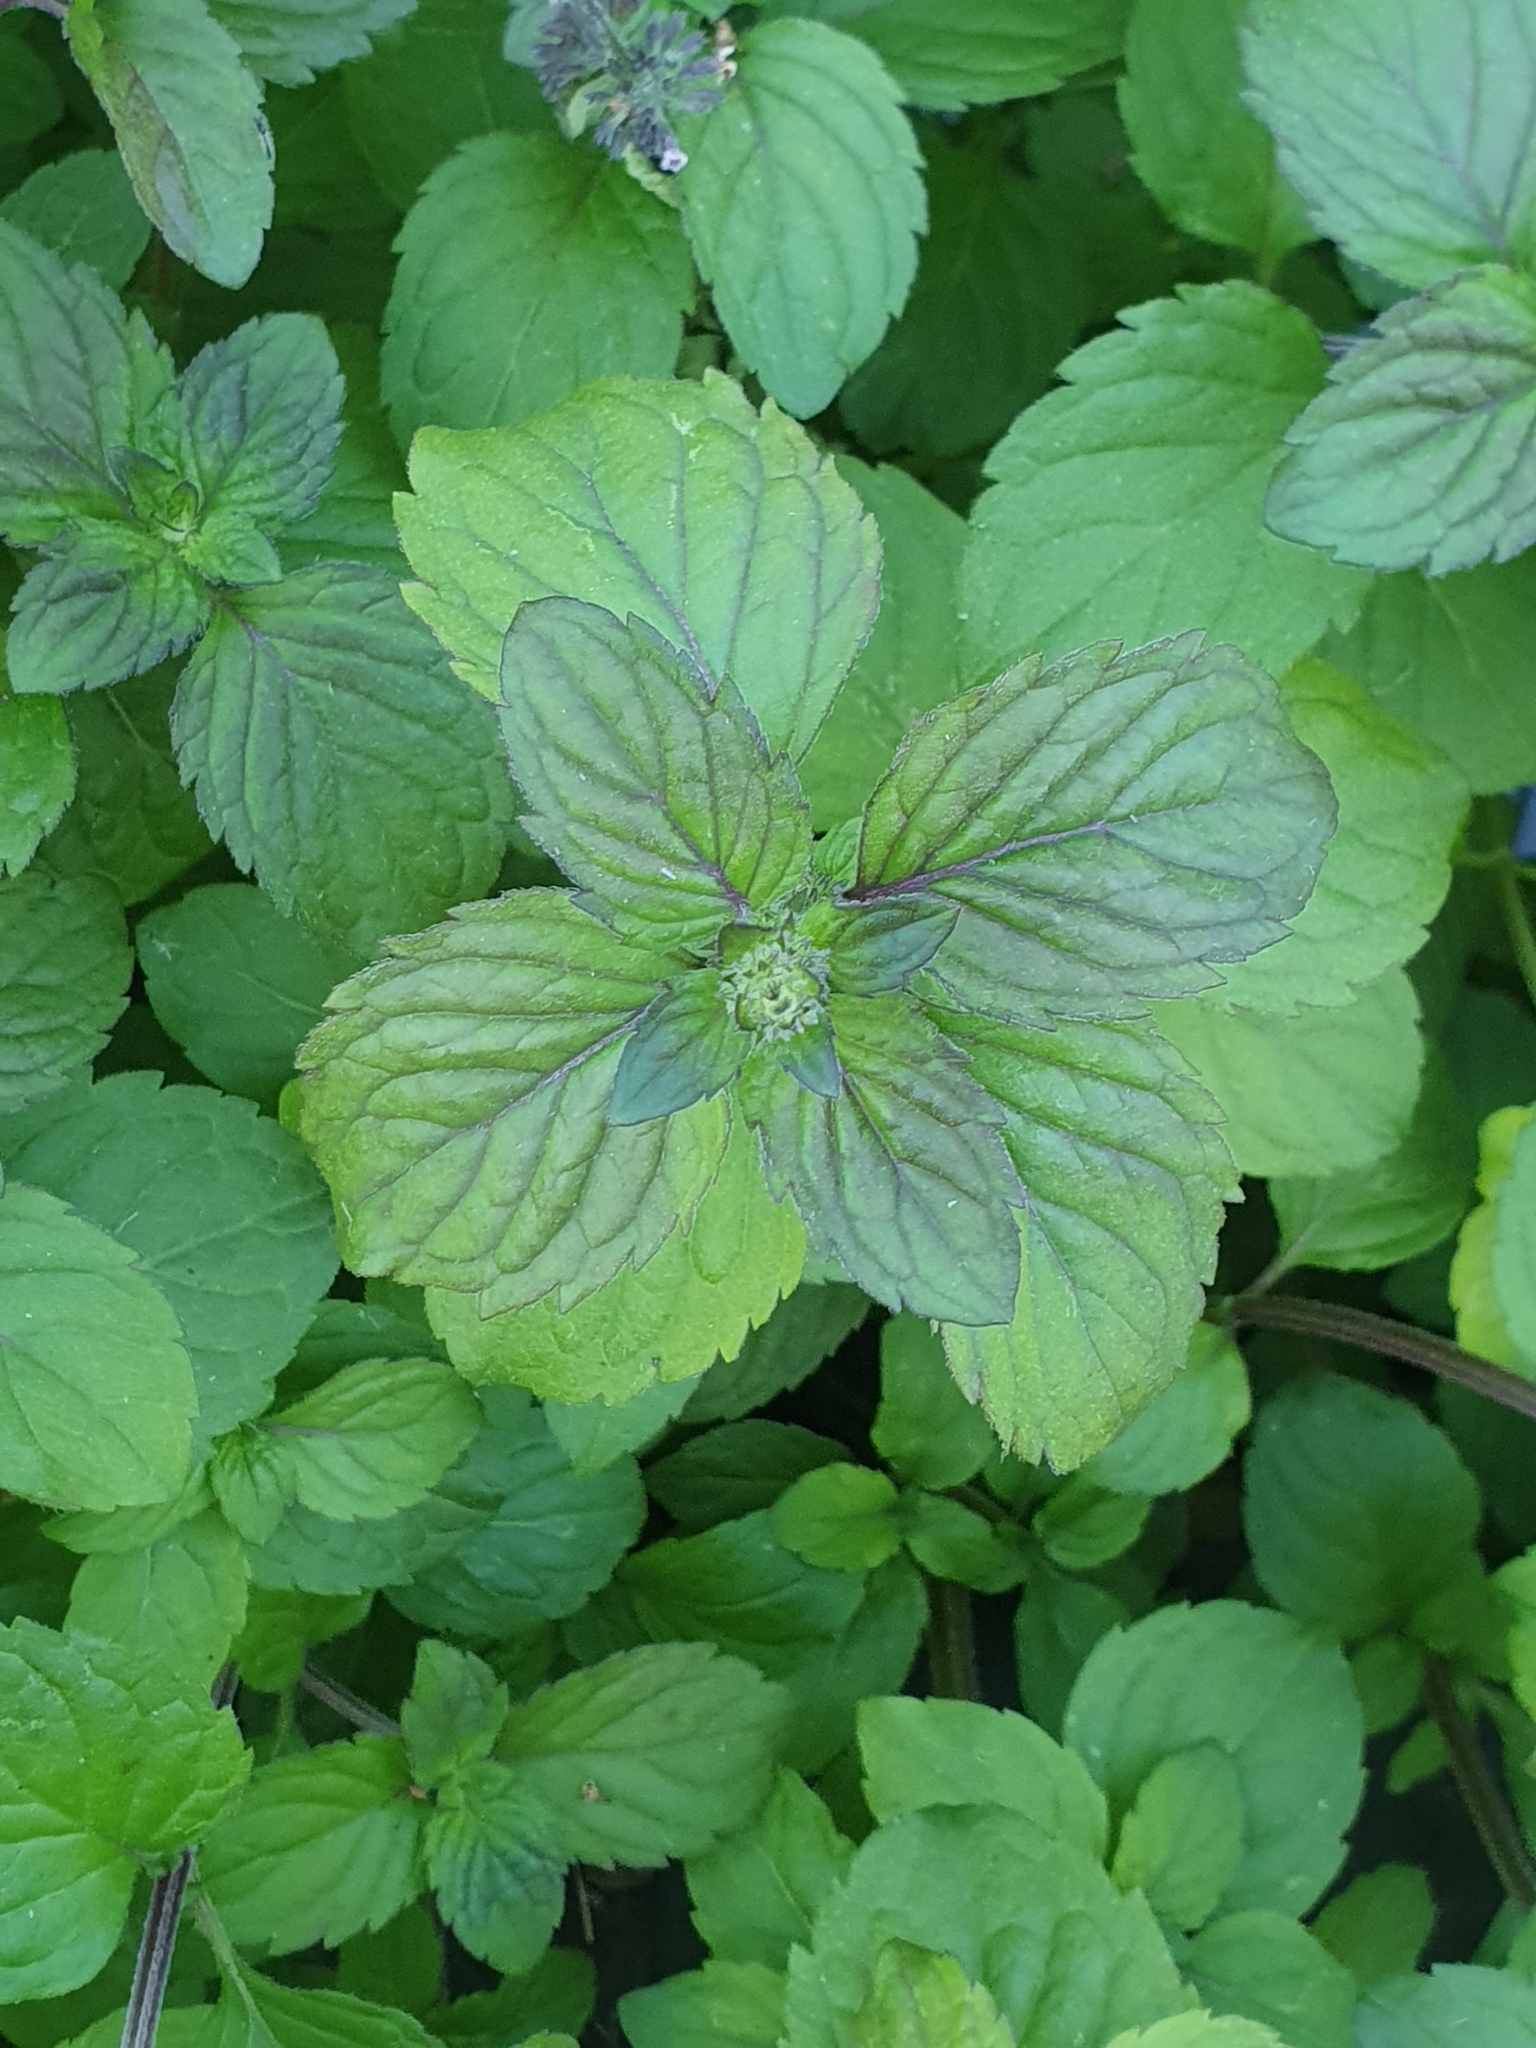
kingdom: Plantae
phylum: Tracheophyta
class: Magnoliopsida
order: Lamiales
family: Lamiaceae
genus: Mentha
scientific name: Mentha verticillata
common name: Mint
